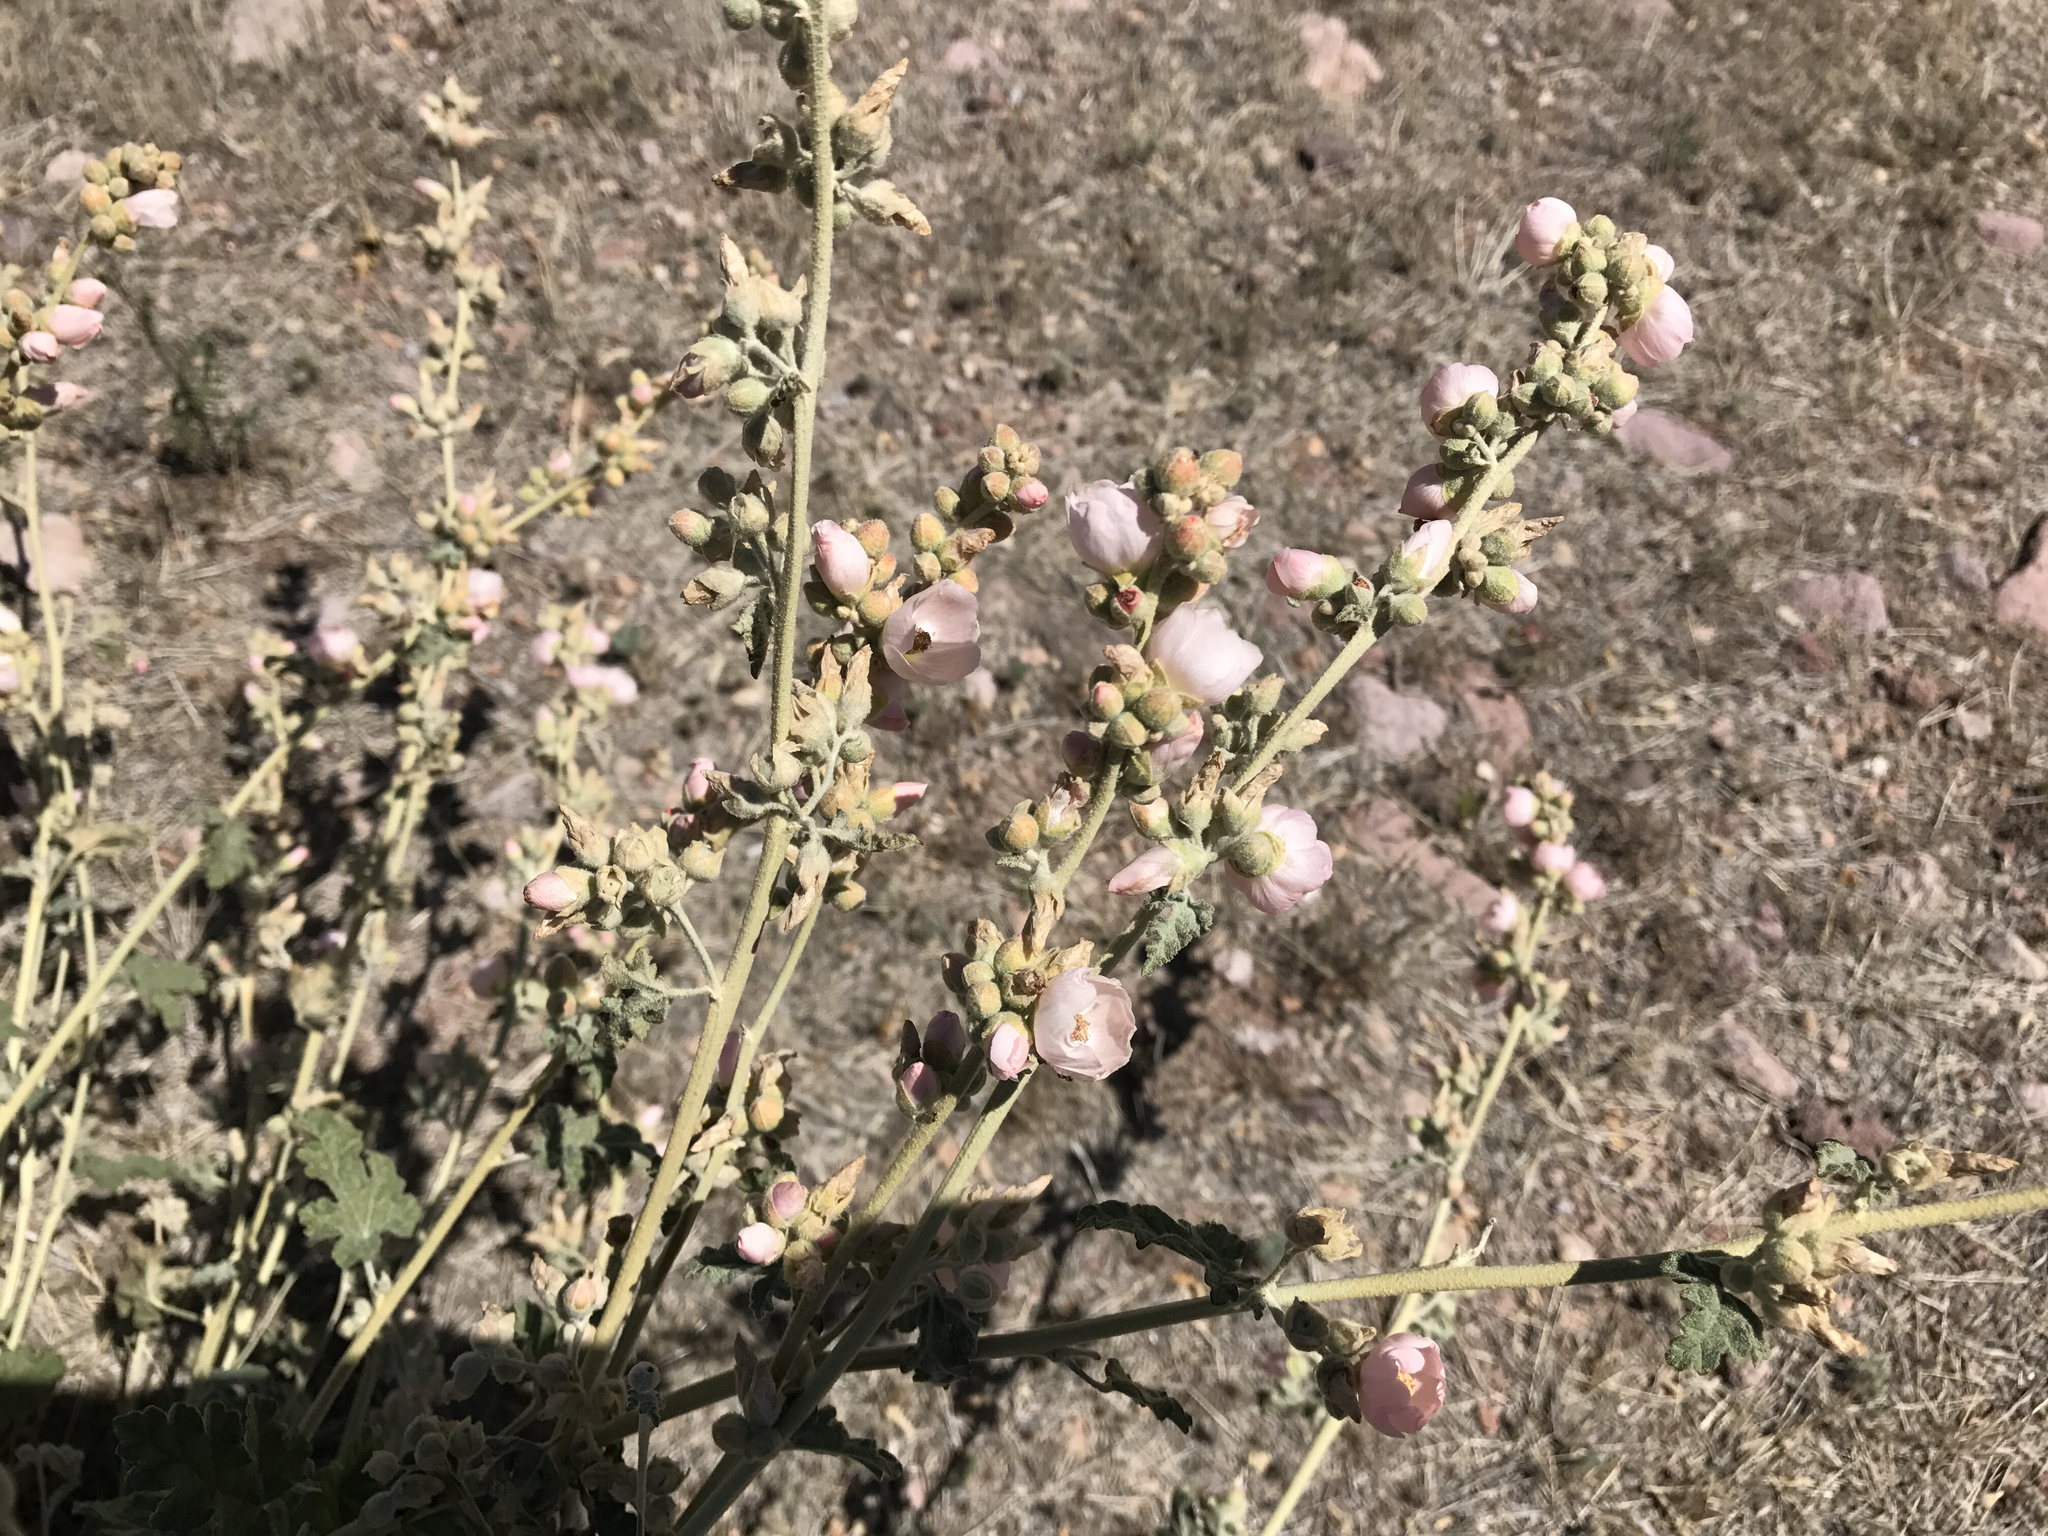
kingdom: Plantae
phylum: Tracheophyta
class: Magnoliopsida
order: Malvales
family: Malvaceae
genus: Sphaeralcea
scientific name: Sphaeralcea ambigua
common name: Apricot globe-mallow
